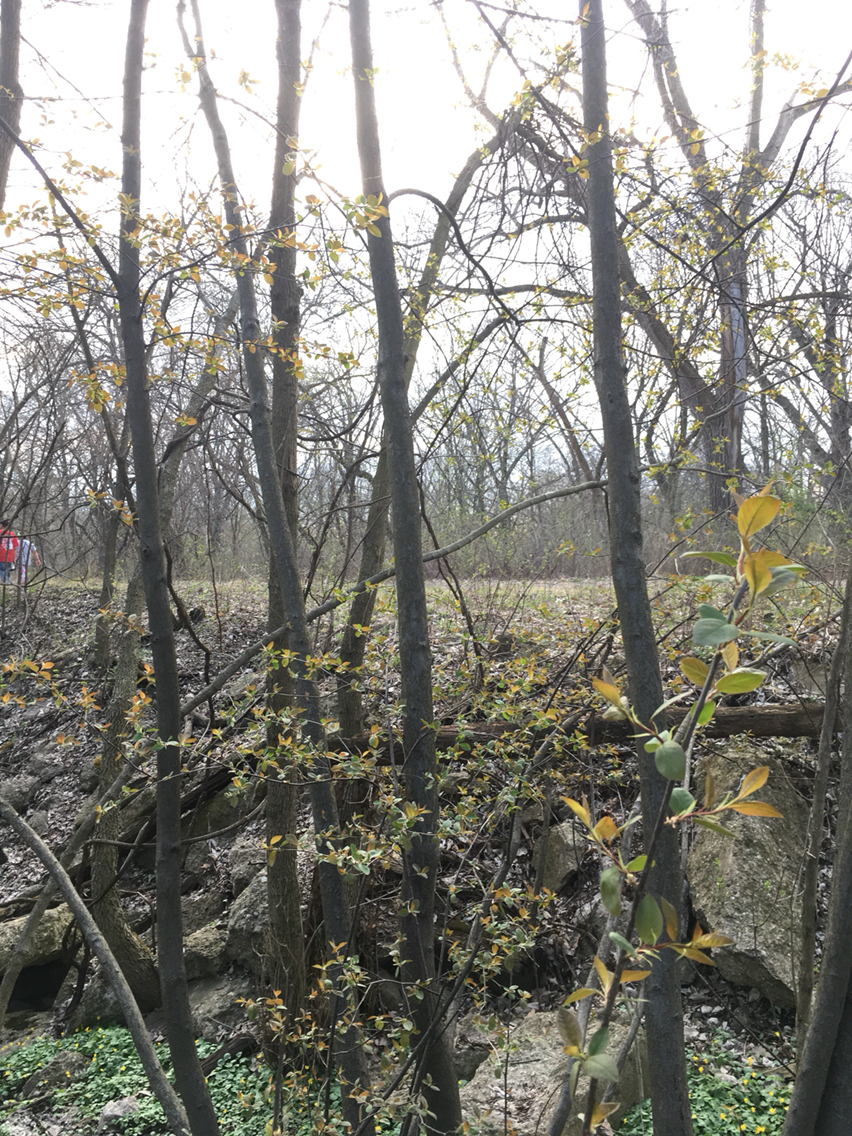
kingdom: Plantae
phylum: Tracheophyta
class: Magnoliopsida
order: Rosales
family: Rosaceae
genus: Prunus
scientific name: Prunus virginiana
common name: Chokecherry
